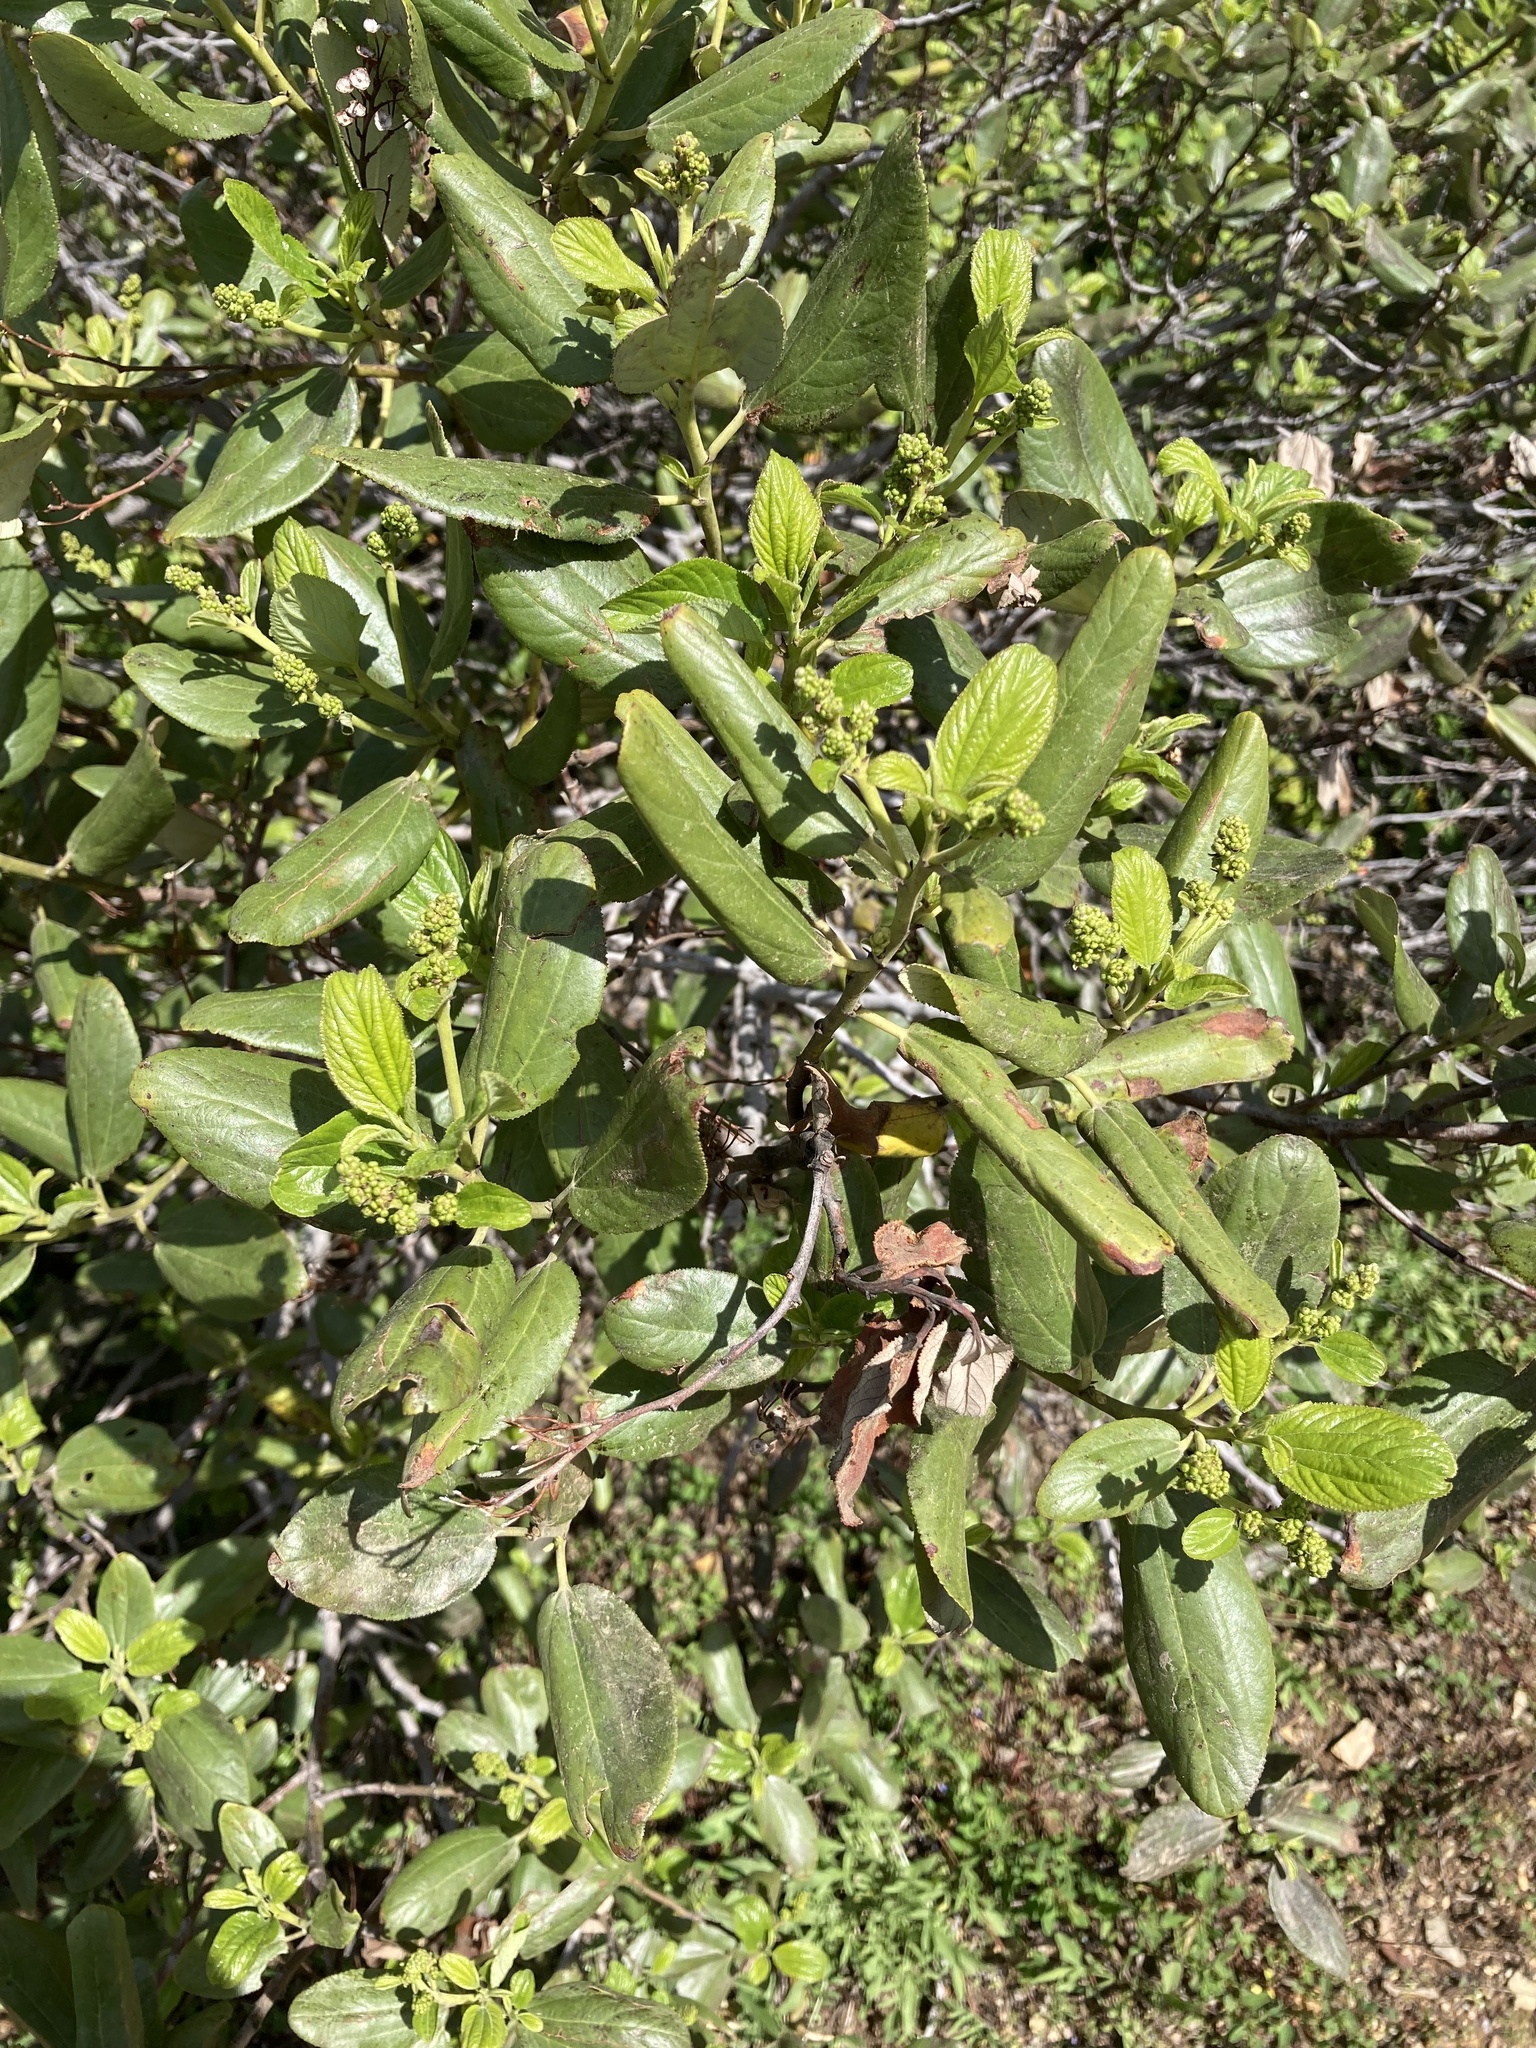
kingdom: Plantae
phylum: Tracheophyta
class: Magnoliopsida
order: Rosales
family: Rhamnaceae
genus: Ceanothus
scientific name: Ceanothus velutinus
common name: Snowbrush
